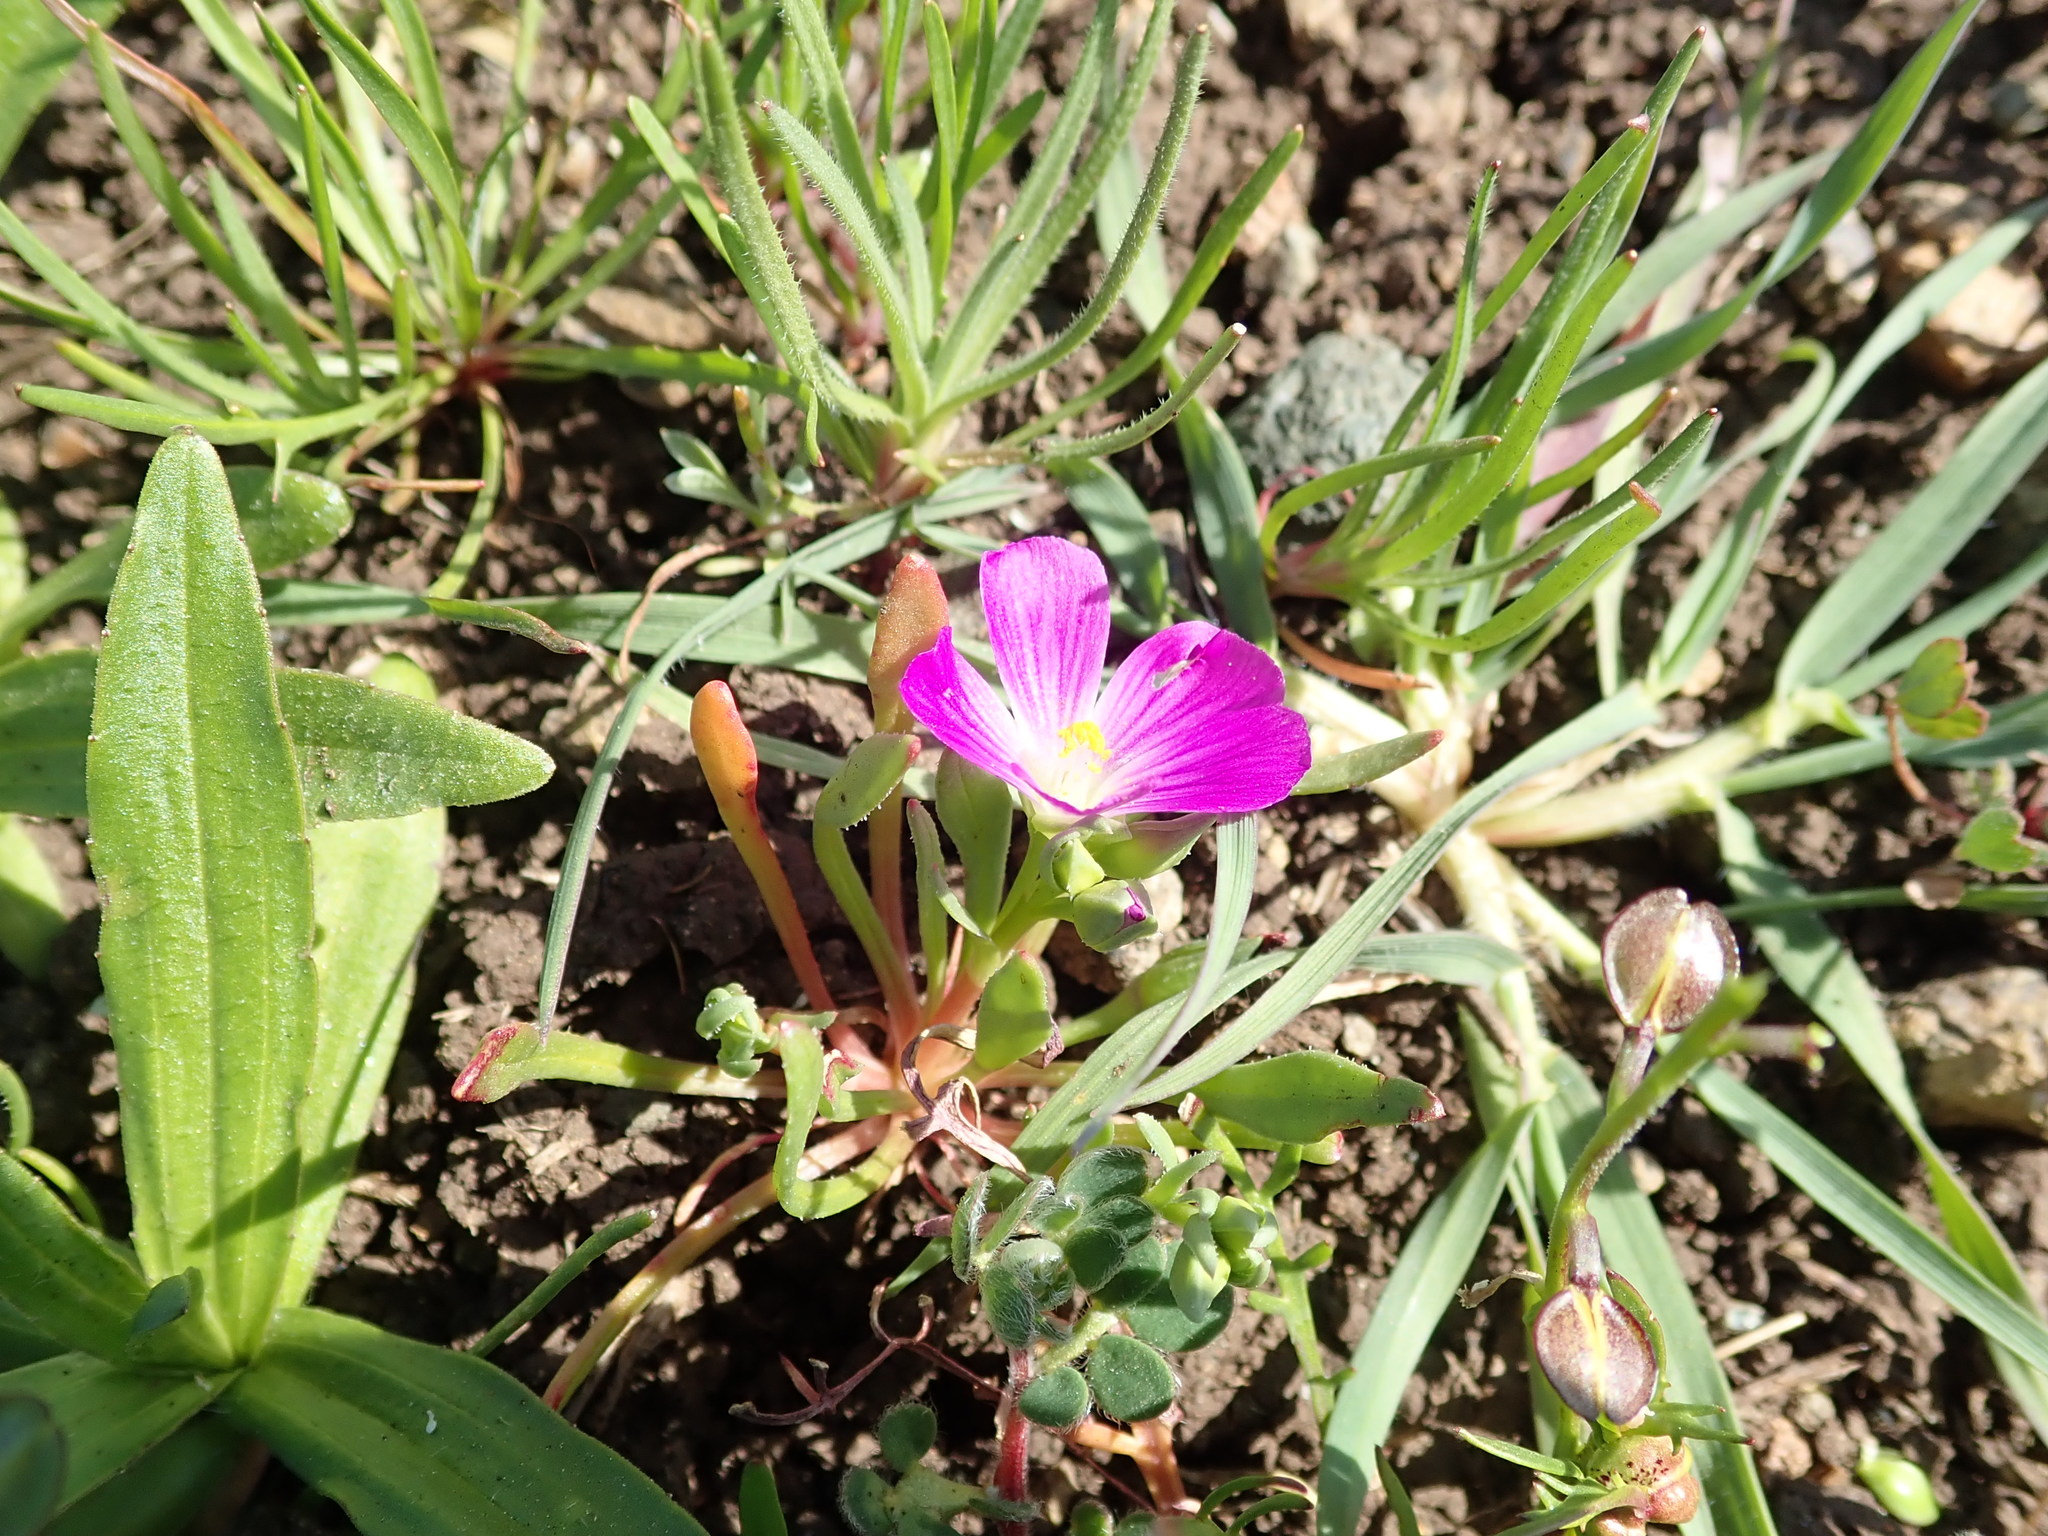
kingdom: Plantae
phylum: Tracheophyta
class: Magnoliopsida
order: Caryophyllales
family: Montiaceae
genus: Calandrinia
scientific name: Calandrinia menziesii
